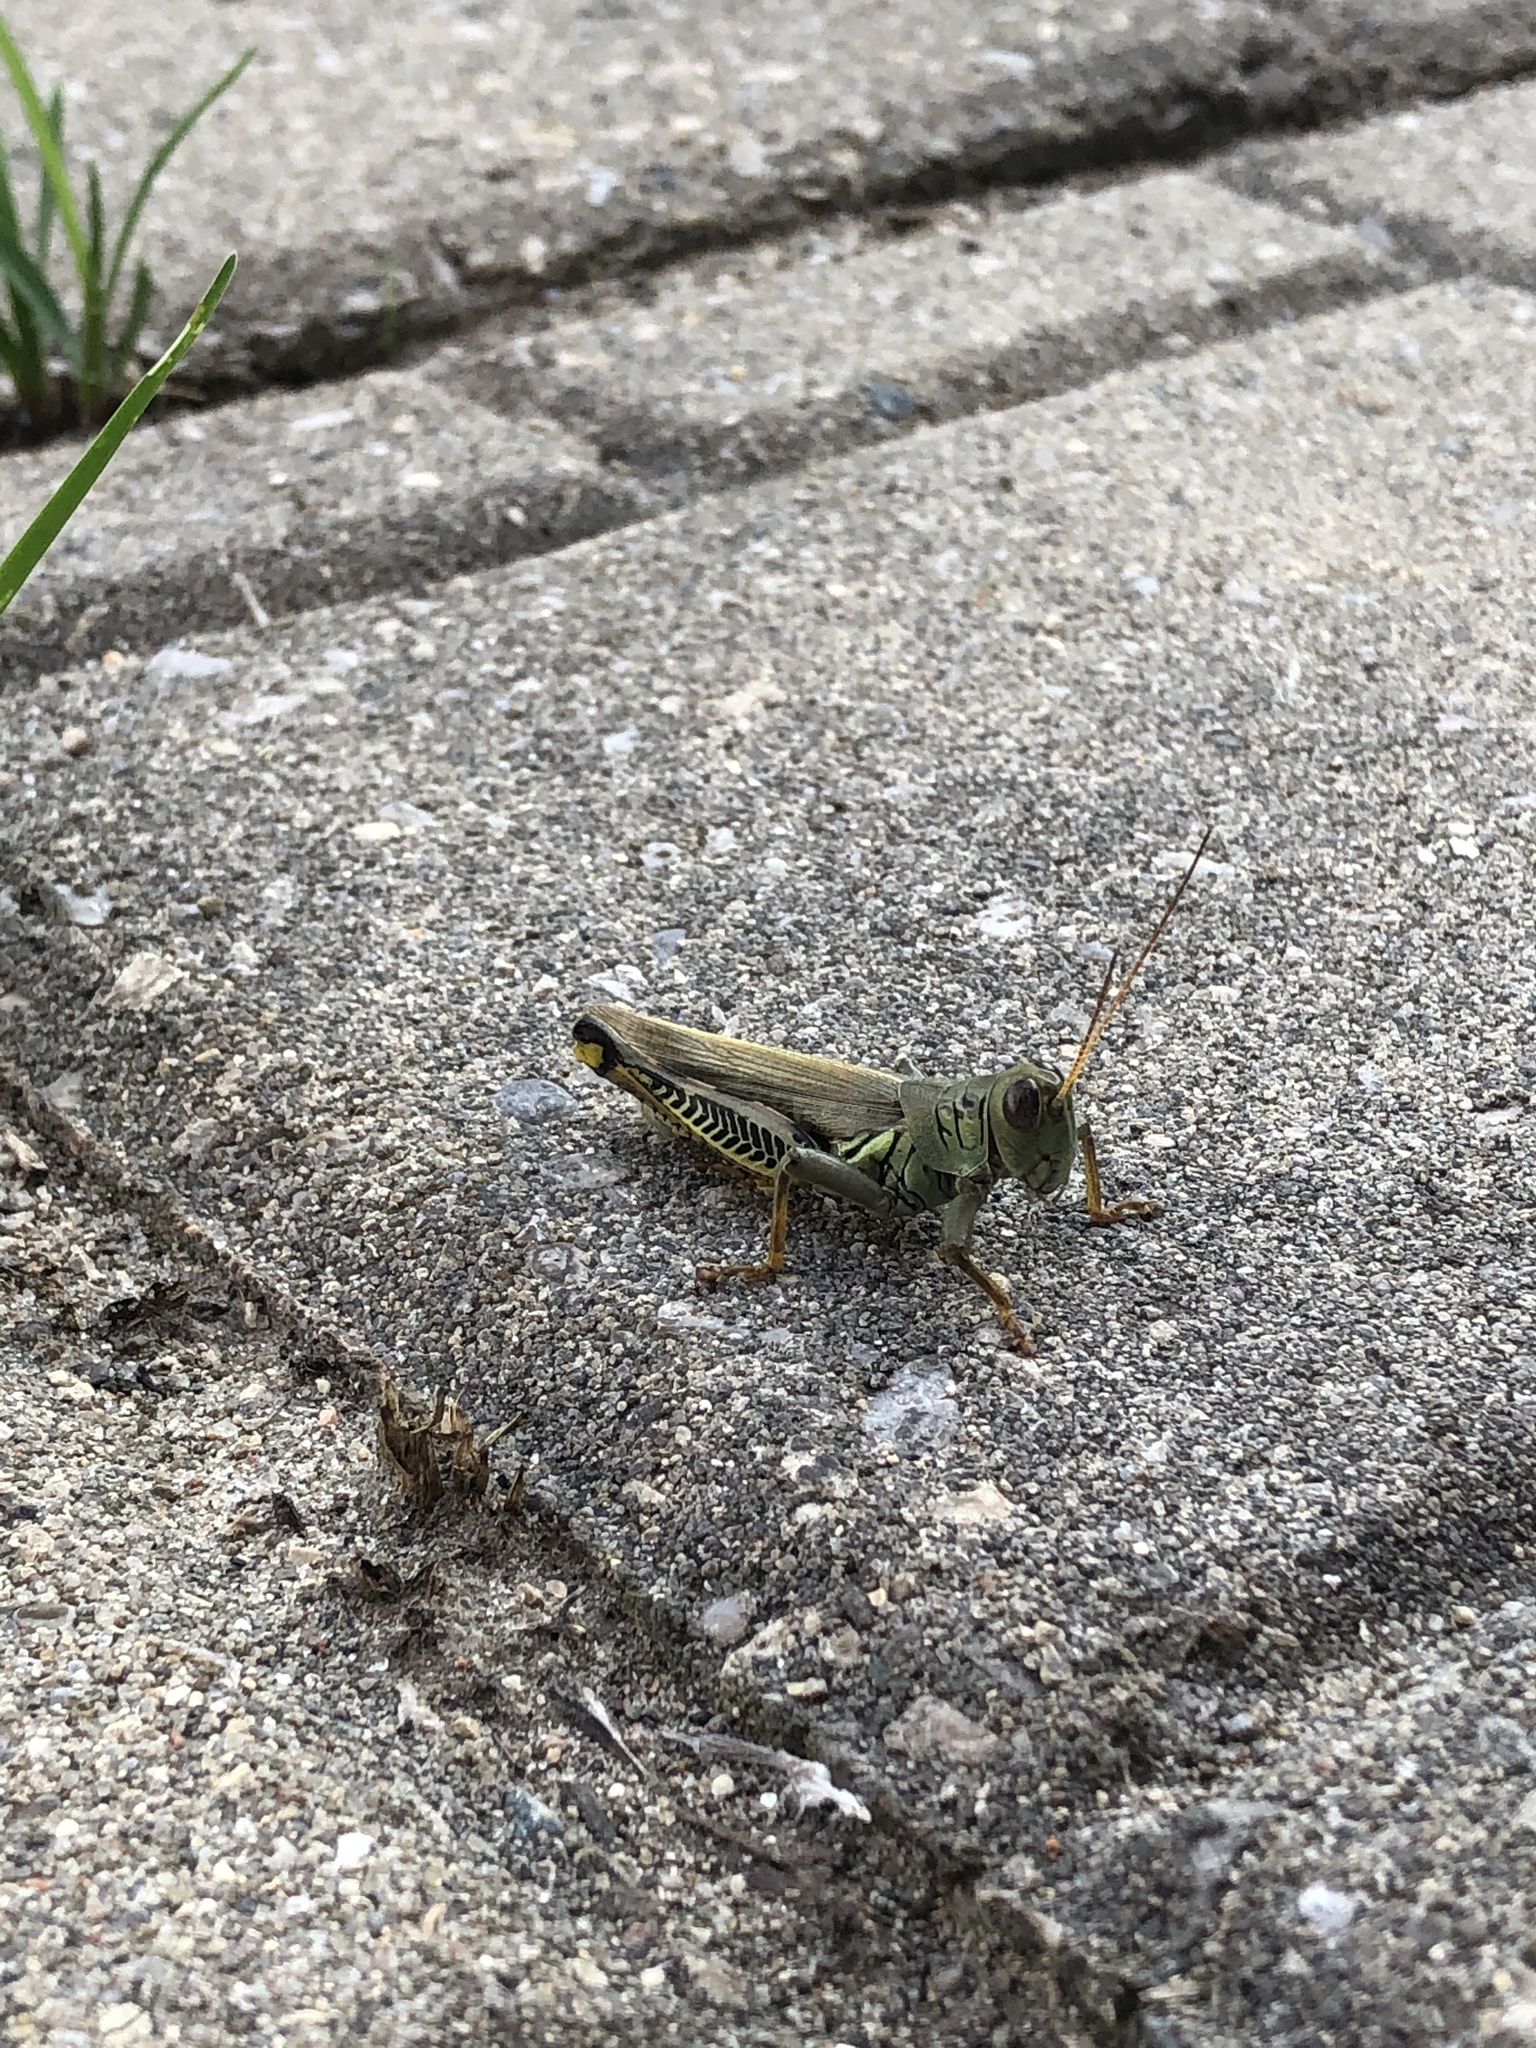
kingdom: Animalia
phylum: Arthropoda
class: Insecta
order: Orthoptera
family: Acrididae
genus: Melanoplus
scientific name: Melanoplus differentialis
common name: Differential grasshopper
